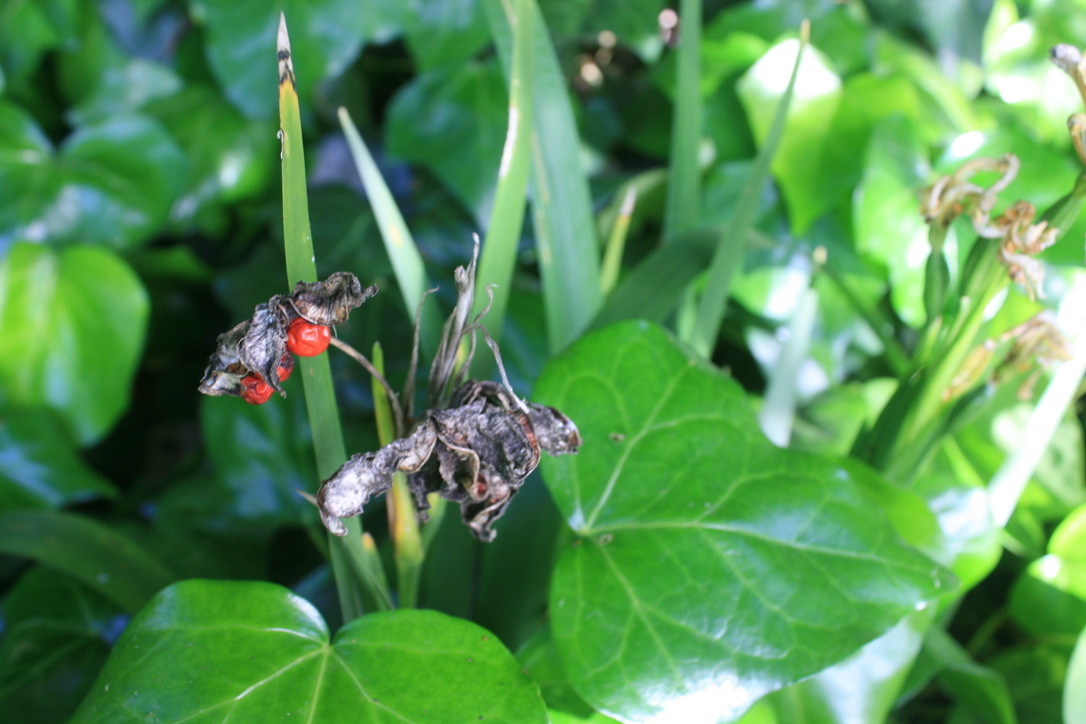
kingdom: Plantae
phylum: Tracheophyta
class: Liliopsida
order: Asparagales
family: Iridaceae
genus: Iris
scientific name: Iris foetidissima
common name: Stinking iris
